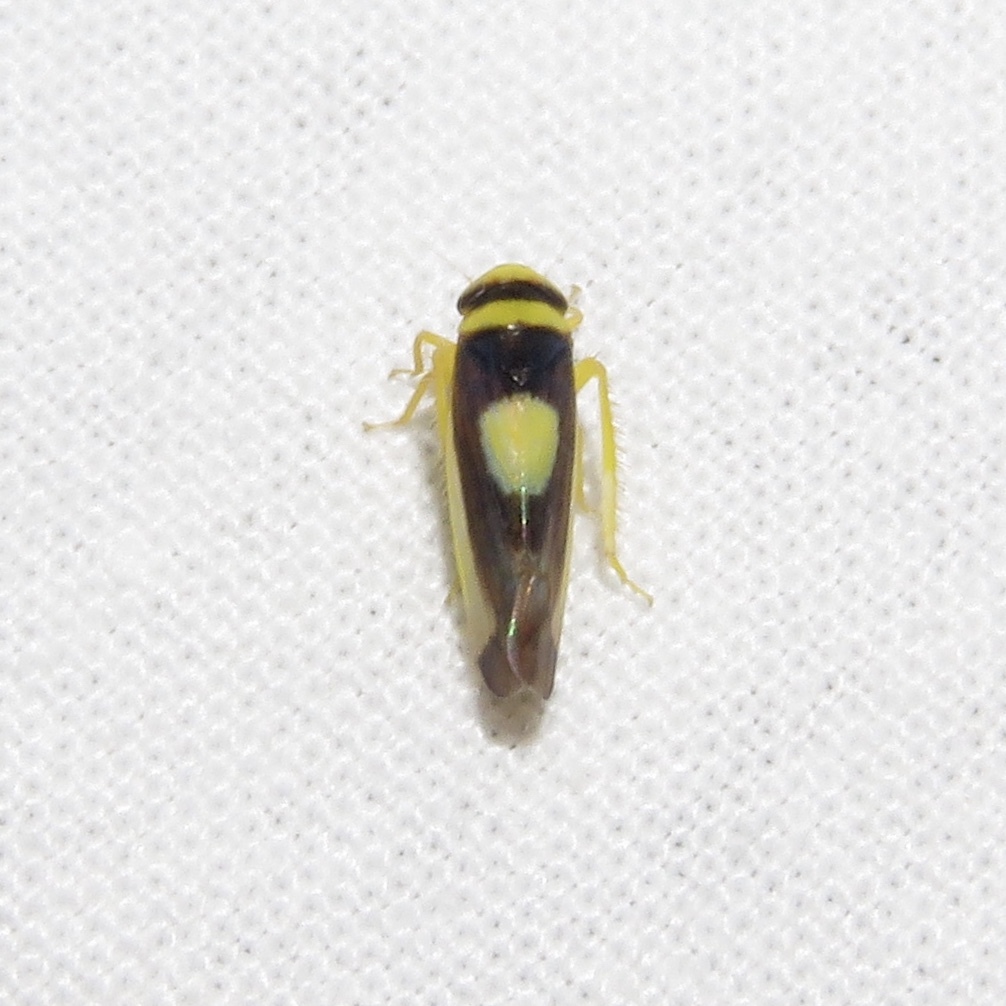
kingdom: Animalia
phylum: Arthropoda
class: Insecta
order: Hemiptera
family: Cicadellidae
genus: Colladonus
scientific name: Colladonus clitellarius
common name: The saddleback leafhopper
